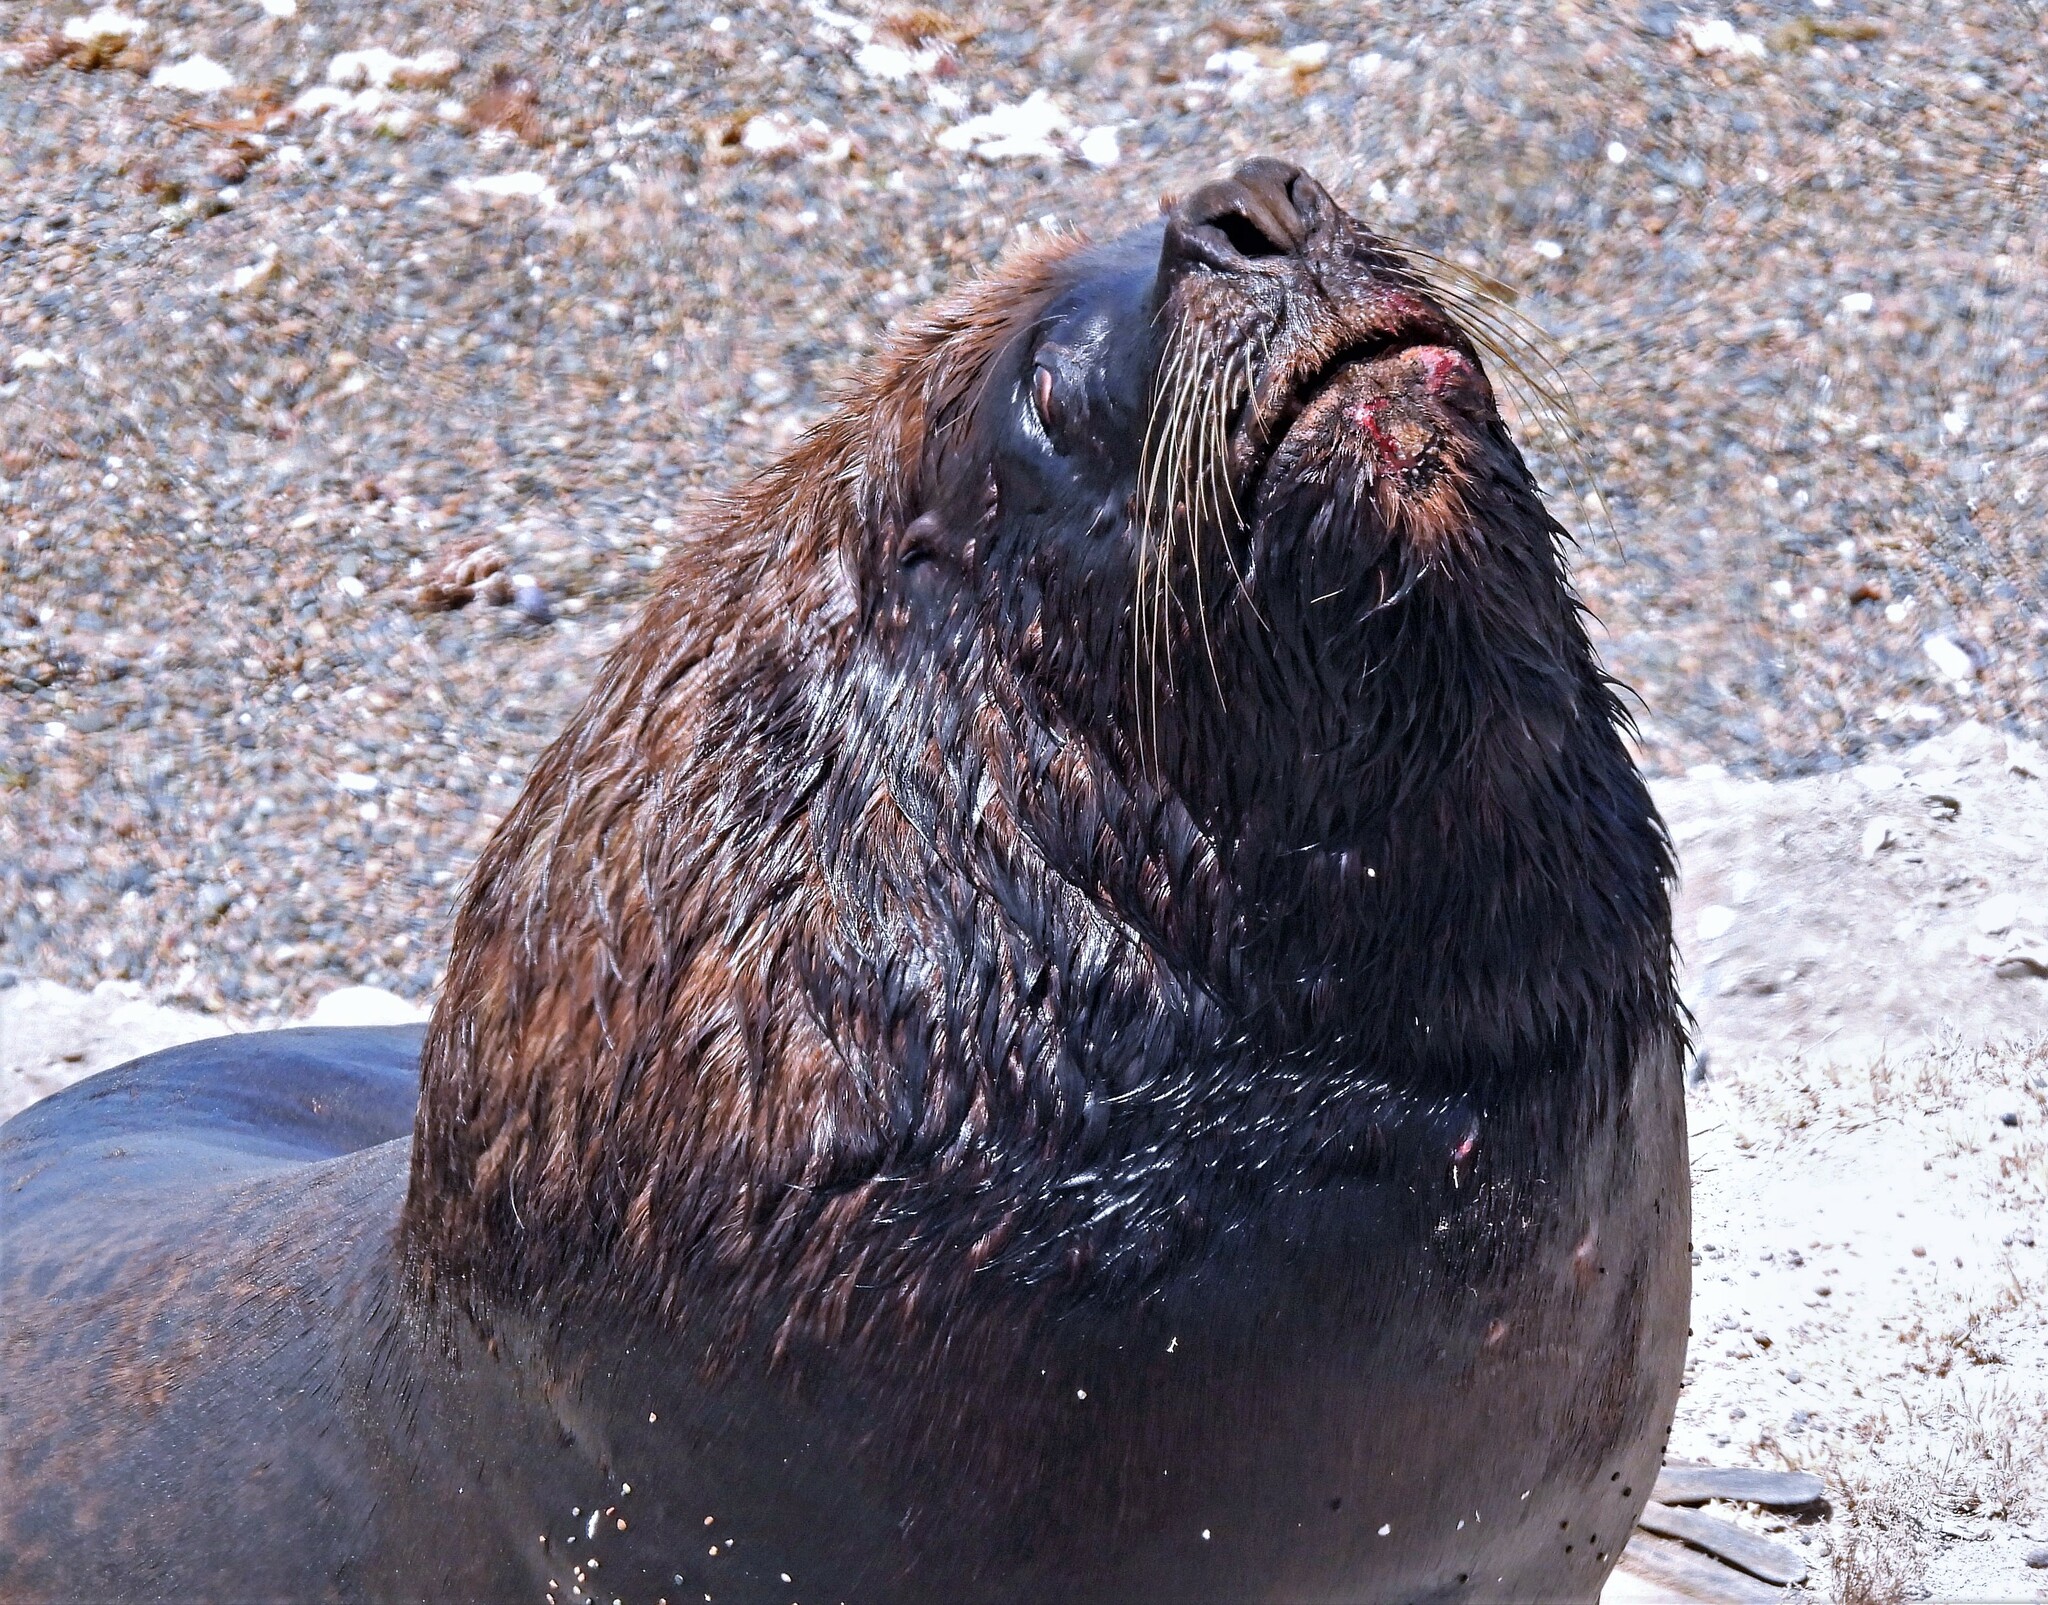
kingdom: Animalia
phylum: Chordata
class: Mammalia
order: Carnivora
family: Otariidae
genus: Otaria
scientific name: Otaria byronia
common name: South american sea lion
